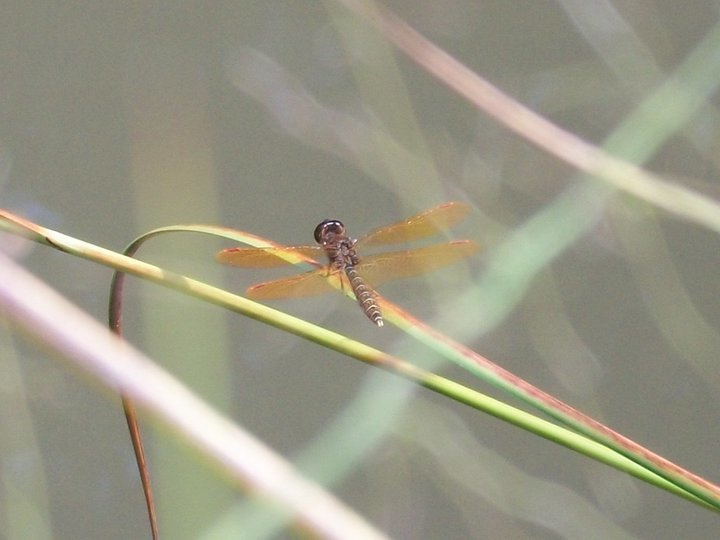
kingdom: Animalia
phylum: Arthropoda
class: Insecta
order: Odonata
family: Libellulidae
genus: Perithemis
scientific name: Perithemis tenera
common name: Eastern amberwing
